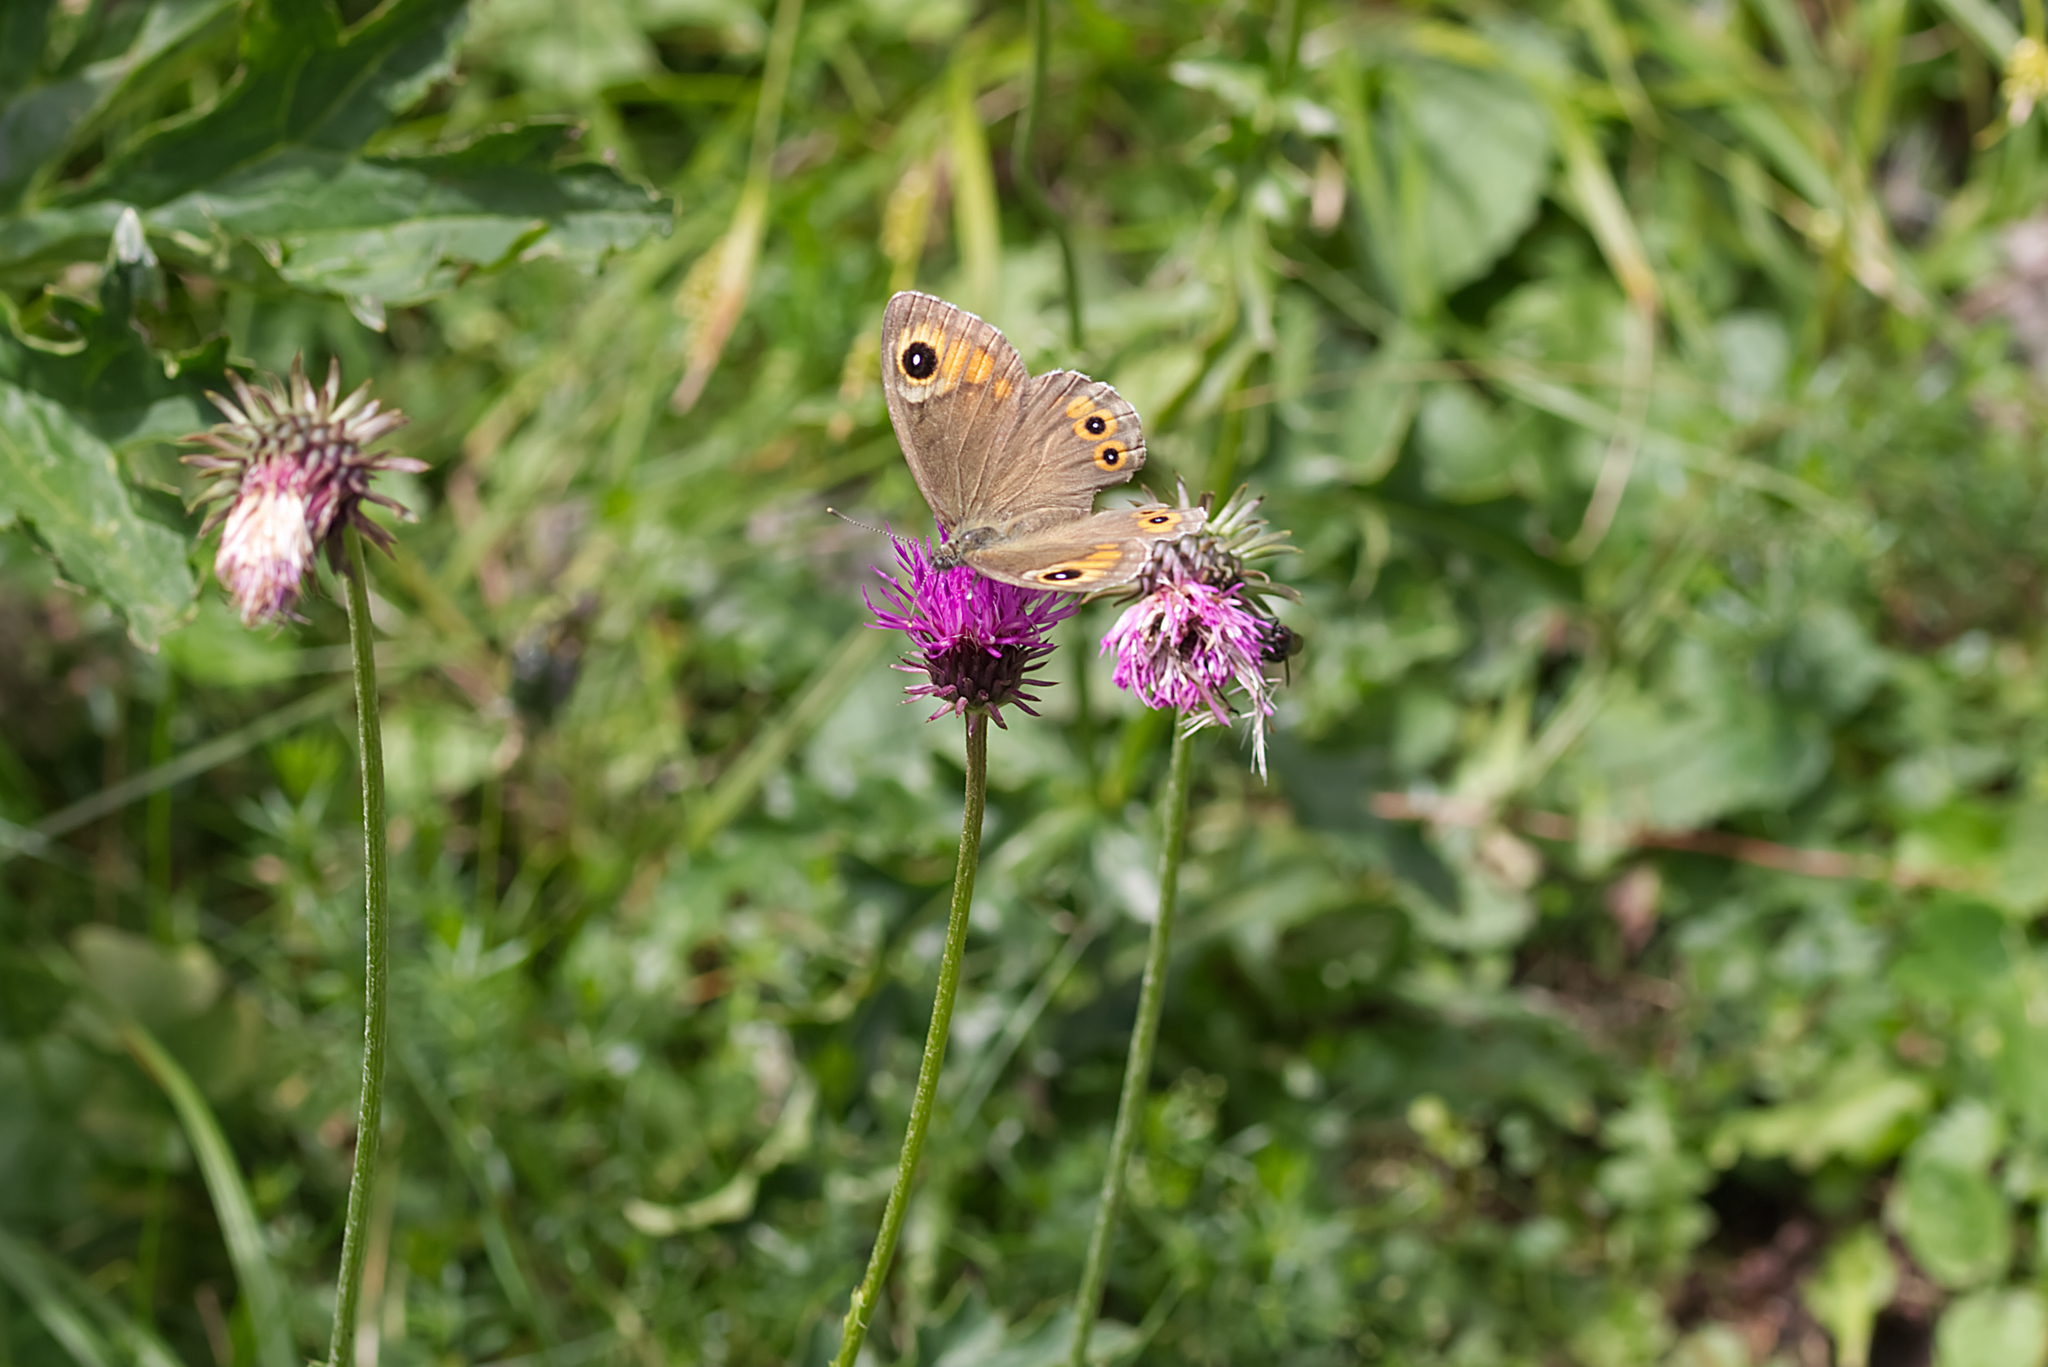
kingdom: Animalia
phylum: Arthropoda
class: Insecta
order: Lepidoptera
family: Nymphalidae
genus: Pararge
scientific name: Pararge Lasiommata maera
